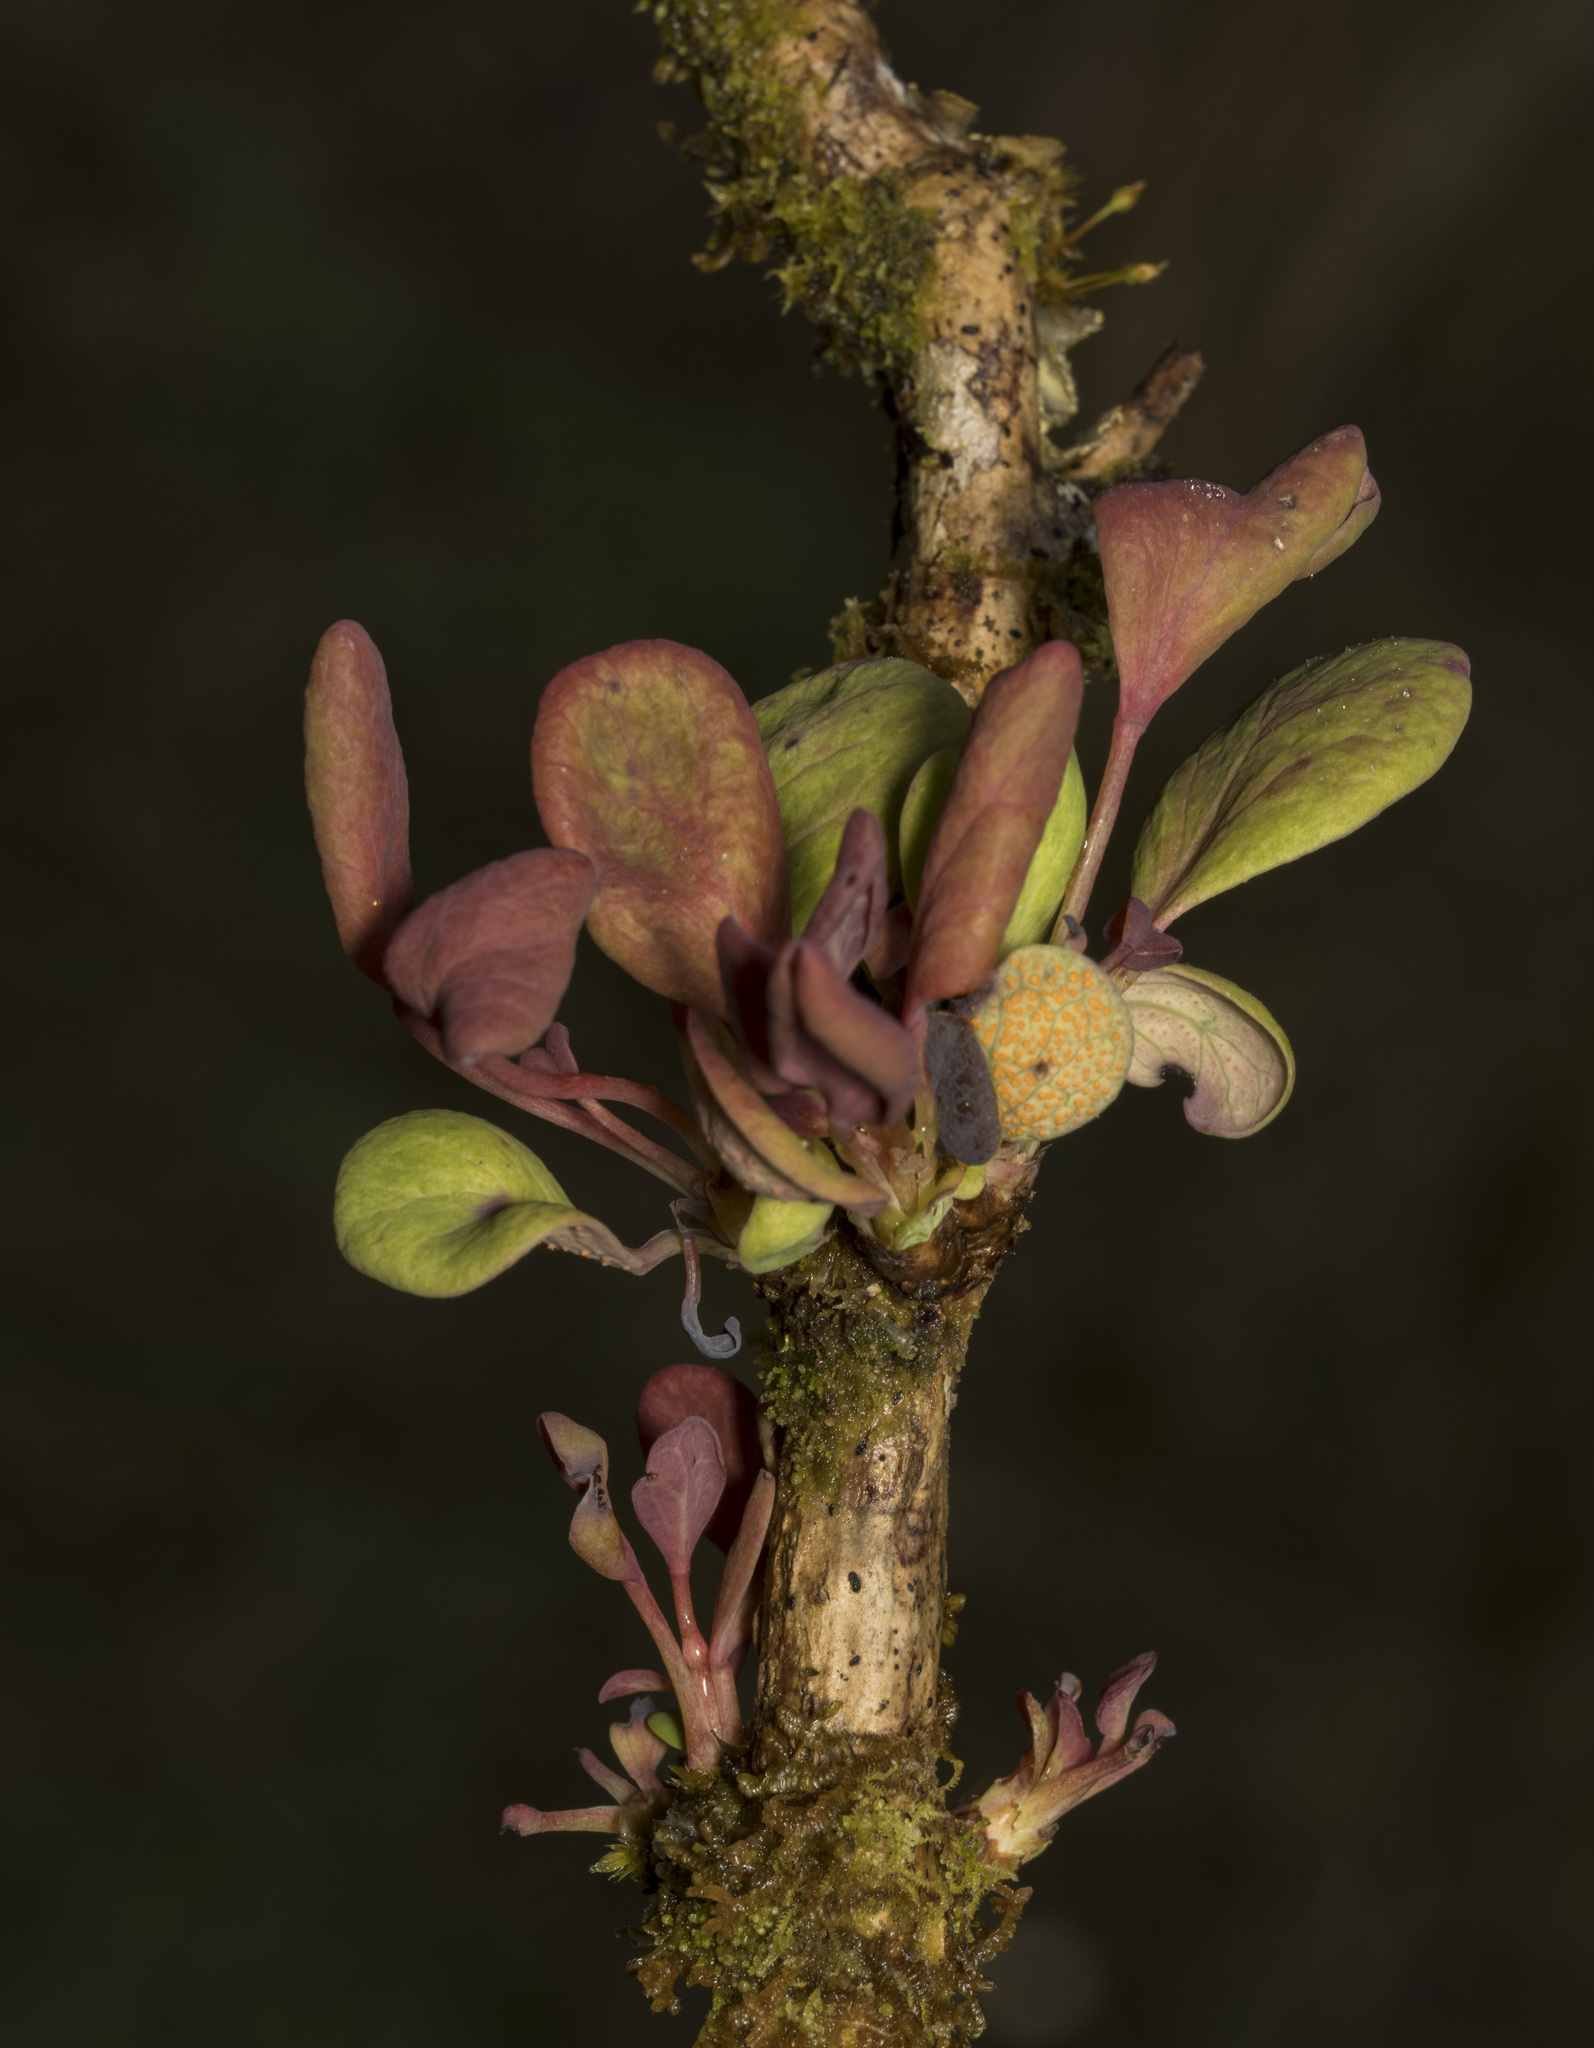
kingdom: Fungi
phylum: Basidiomycota
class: Pucciniomycetes
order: Pucciniales
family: Pucciniaceae
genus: Puccinia
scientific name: Puccinia magellanica
